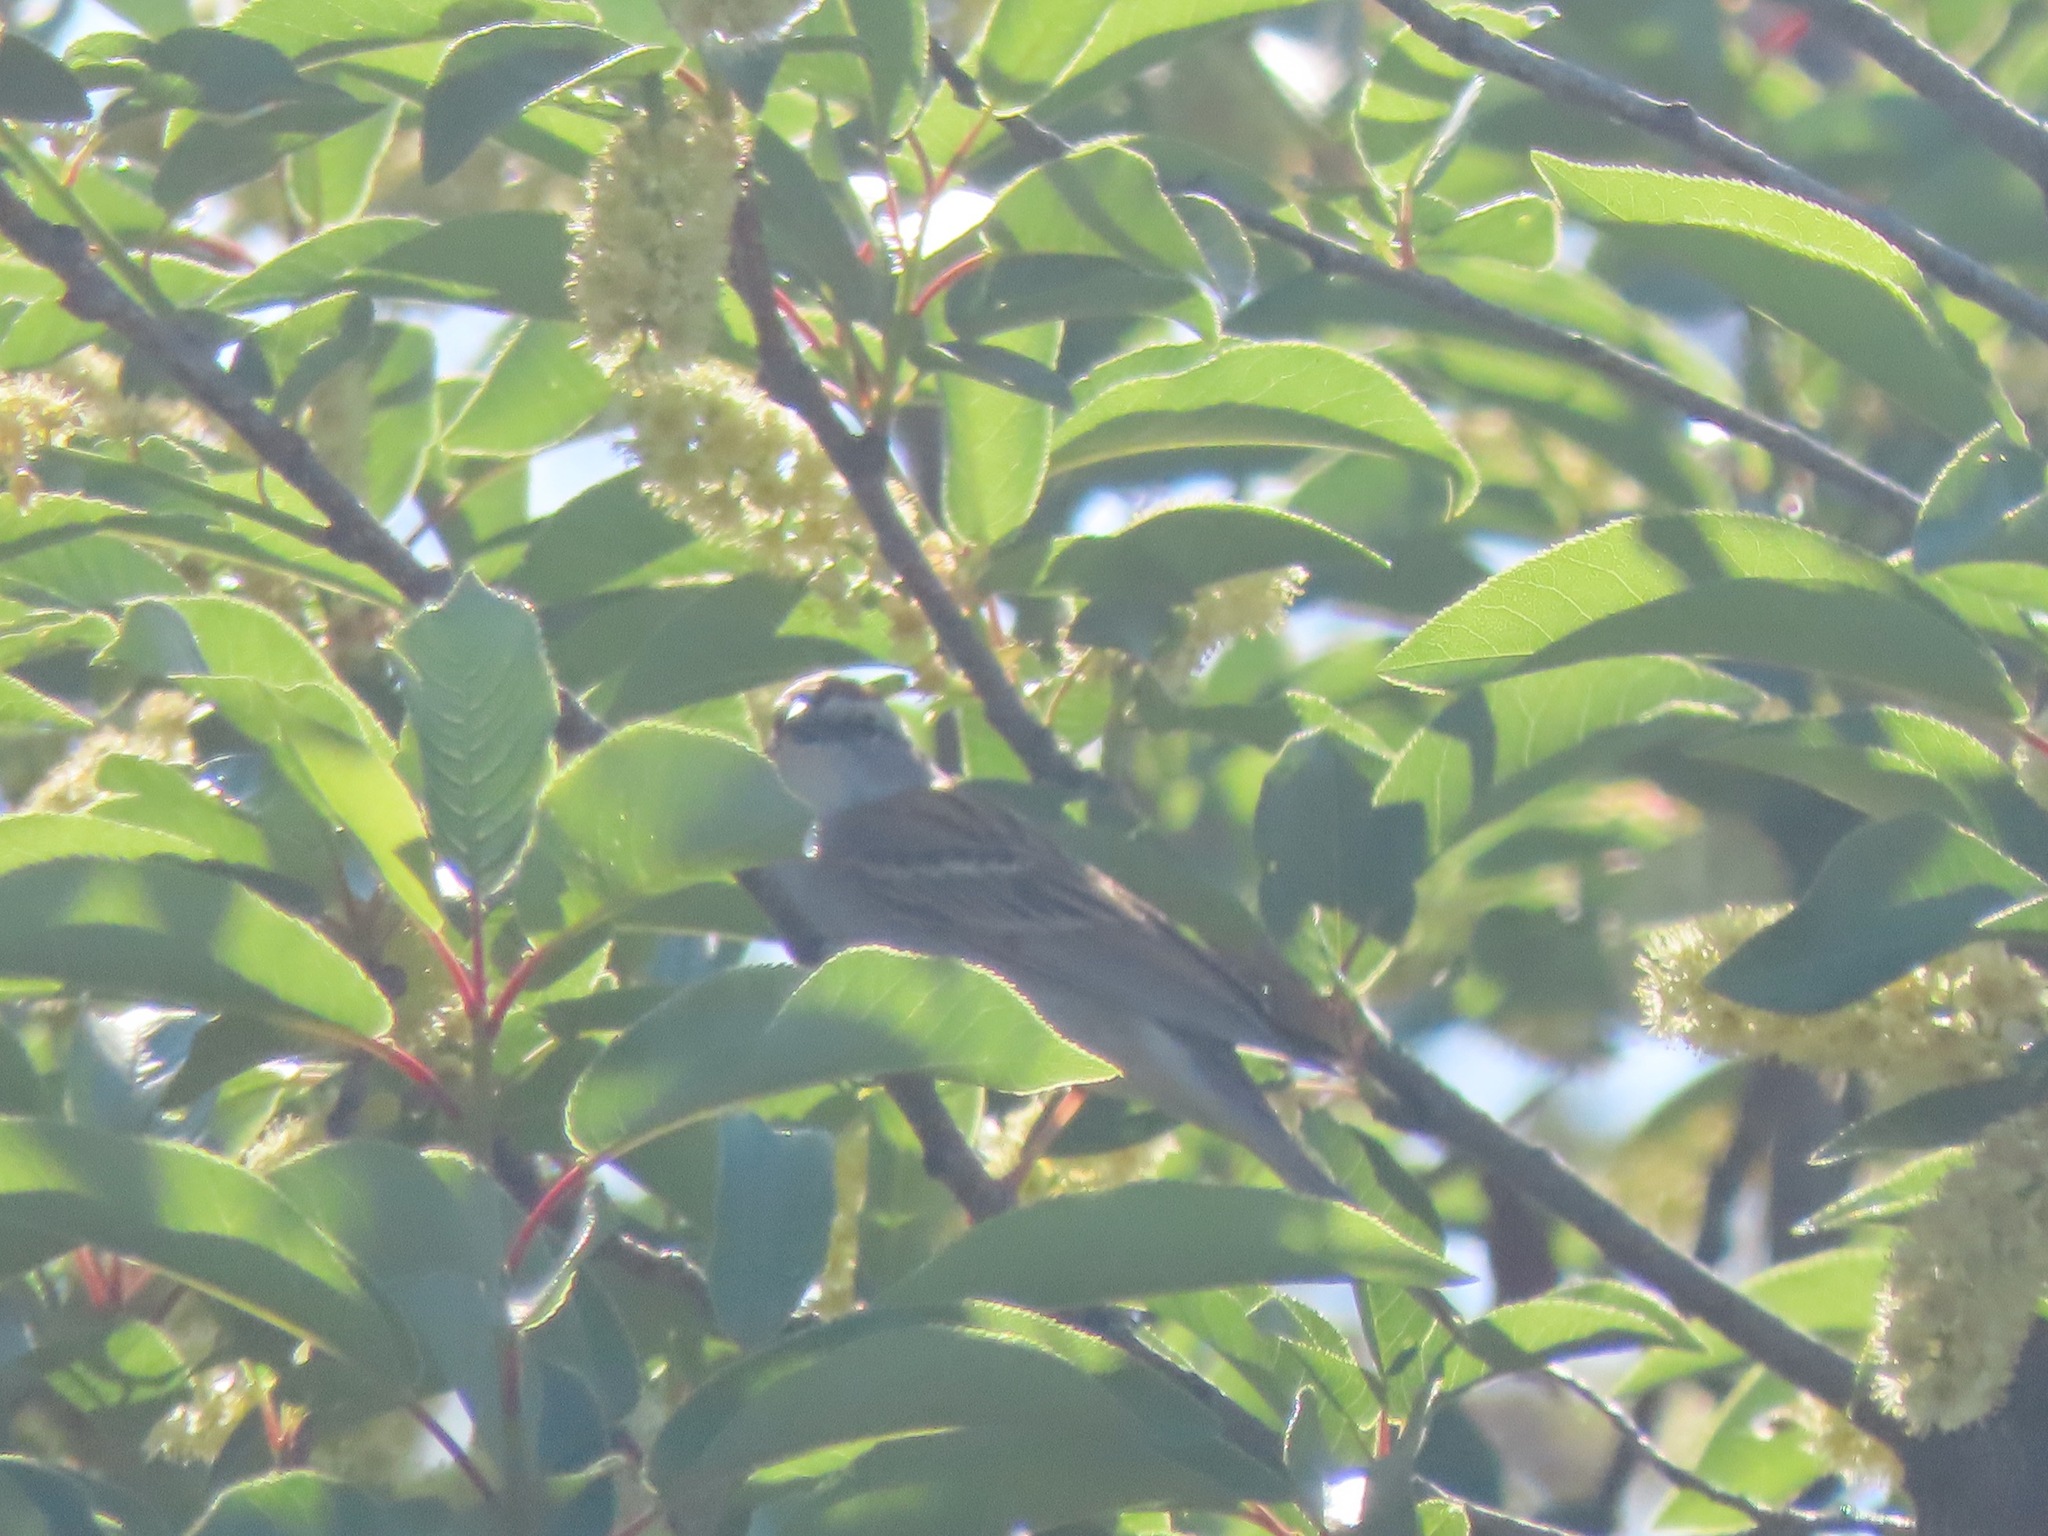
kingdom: Animalia
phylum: Chordata
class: Aves
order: Passeriformes
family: Passerellidae
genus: Spizella
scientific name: Spizella passerina
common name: Chipping sparrow
